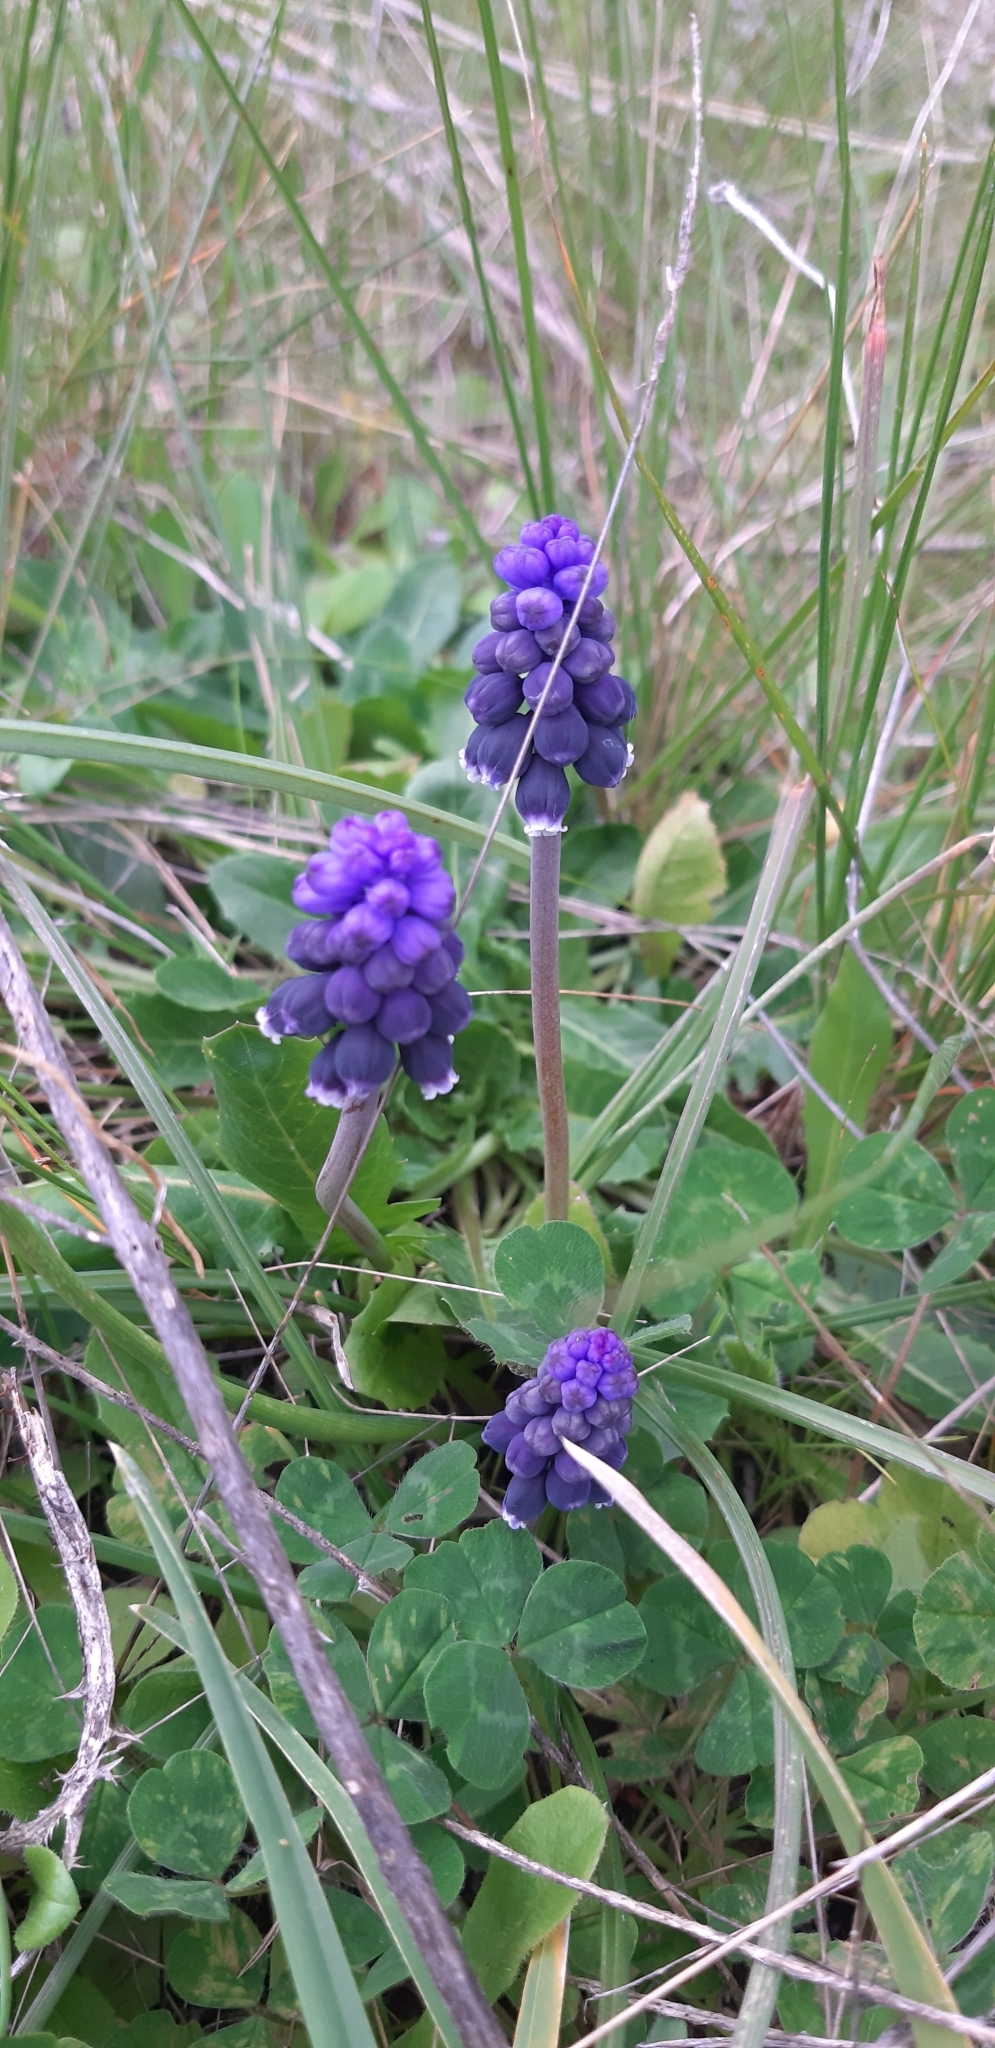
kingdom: Plantae
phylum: Tracheophyta
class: Liliopsida
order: Asparagales
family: Asparagaceae
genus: Muscari
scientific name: Muscari neglectum
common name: Grape-hyacinth
